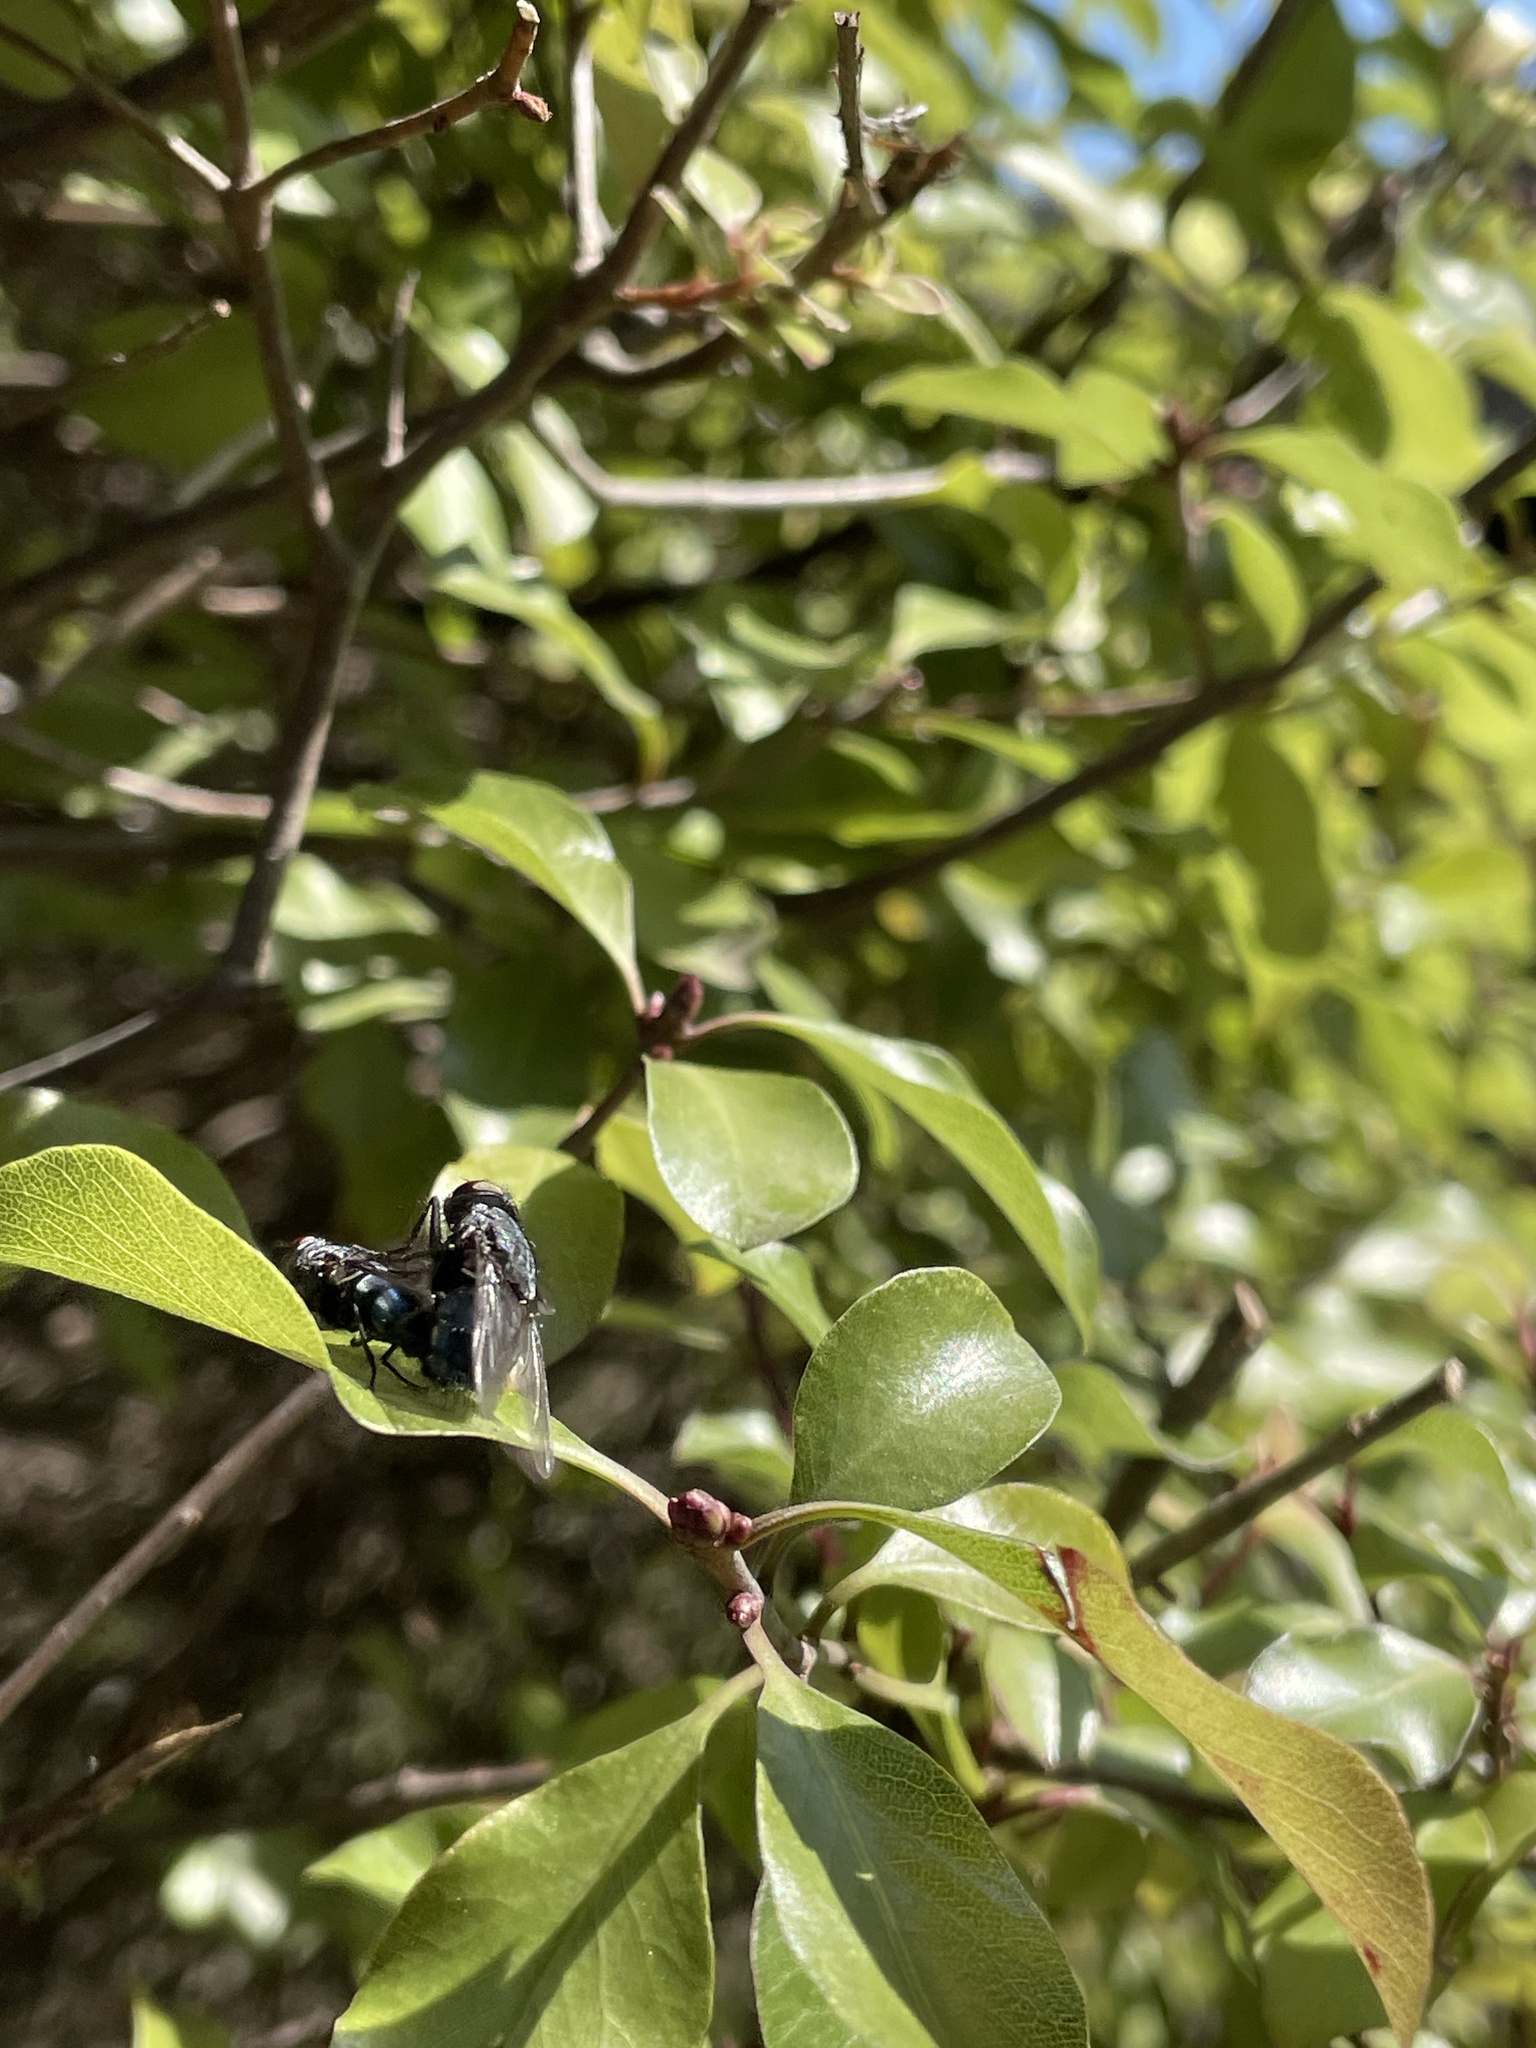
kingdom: Animalia
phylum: Arthropoda
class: Insecta
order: Diptera
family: Calliphoridae
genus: Calliphora
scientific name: Calliphora vicina
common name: Common blow flie
